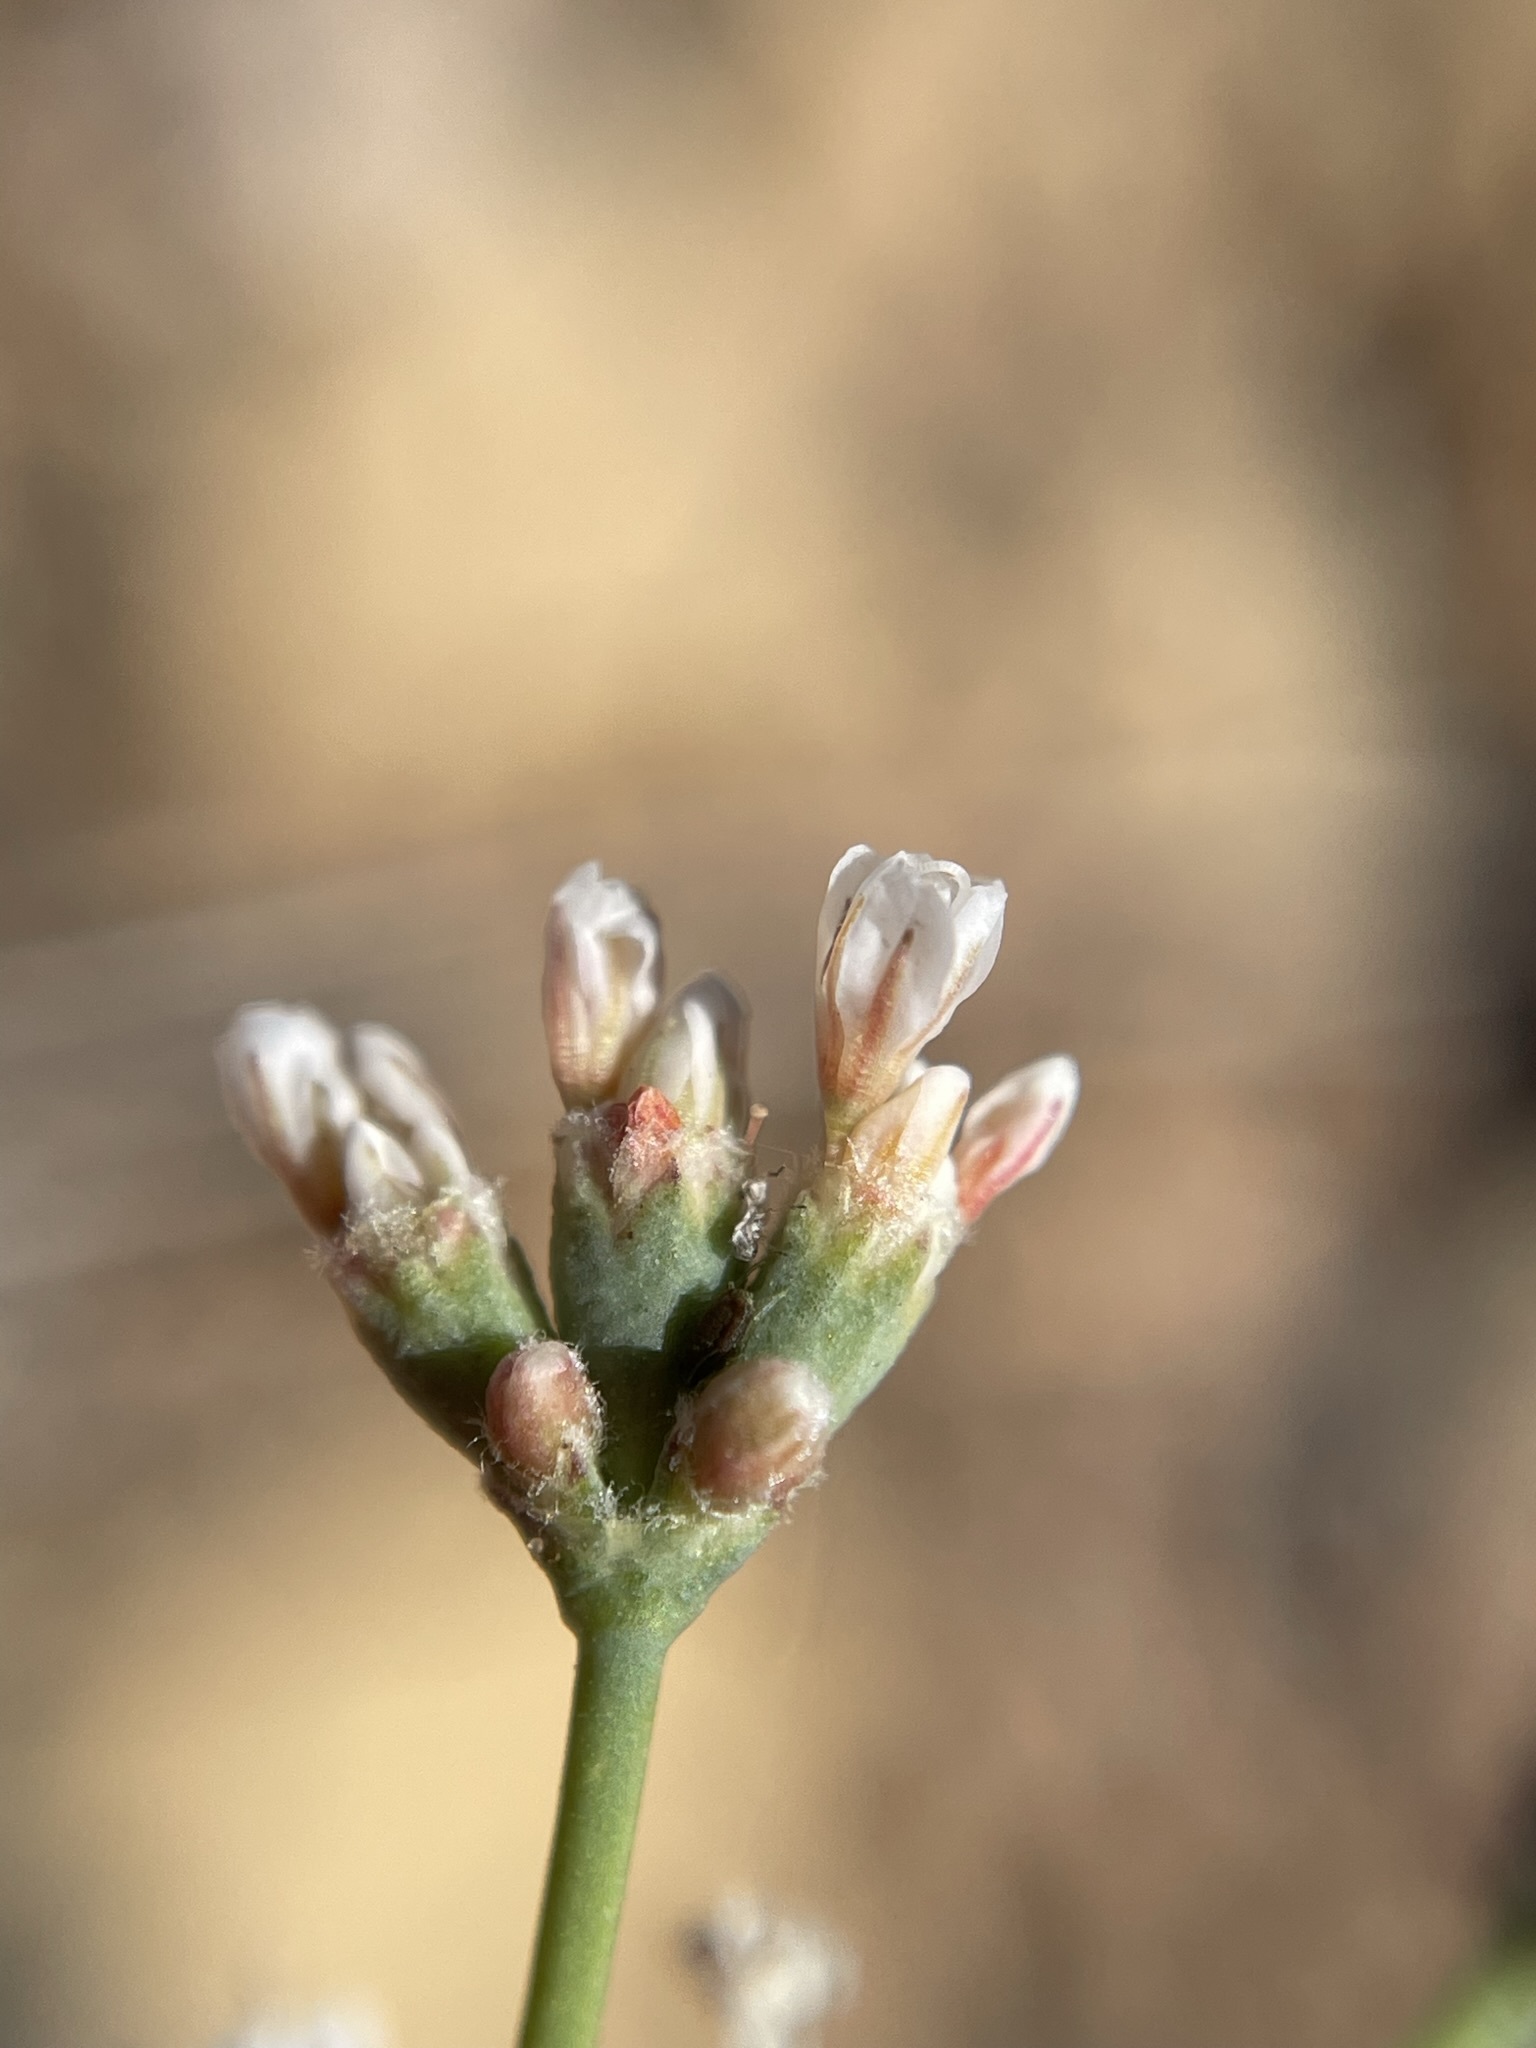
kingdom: Plantae
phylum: Tracheophyta
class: Magnoliopsida
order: Caryophyllales
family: Polygonaceae
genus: Eriogonum
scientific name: Eriogonum batemanii
